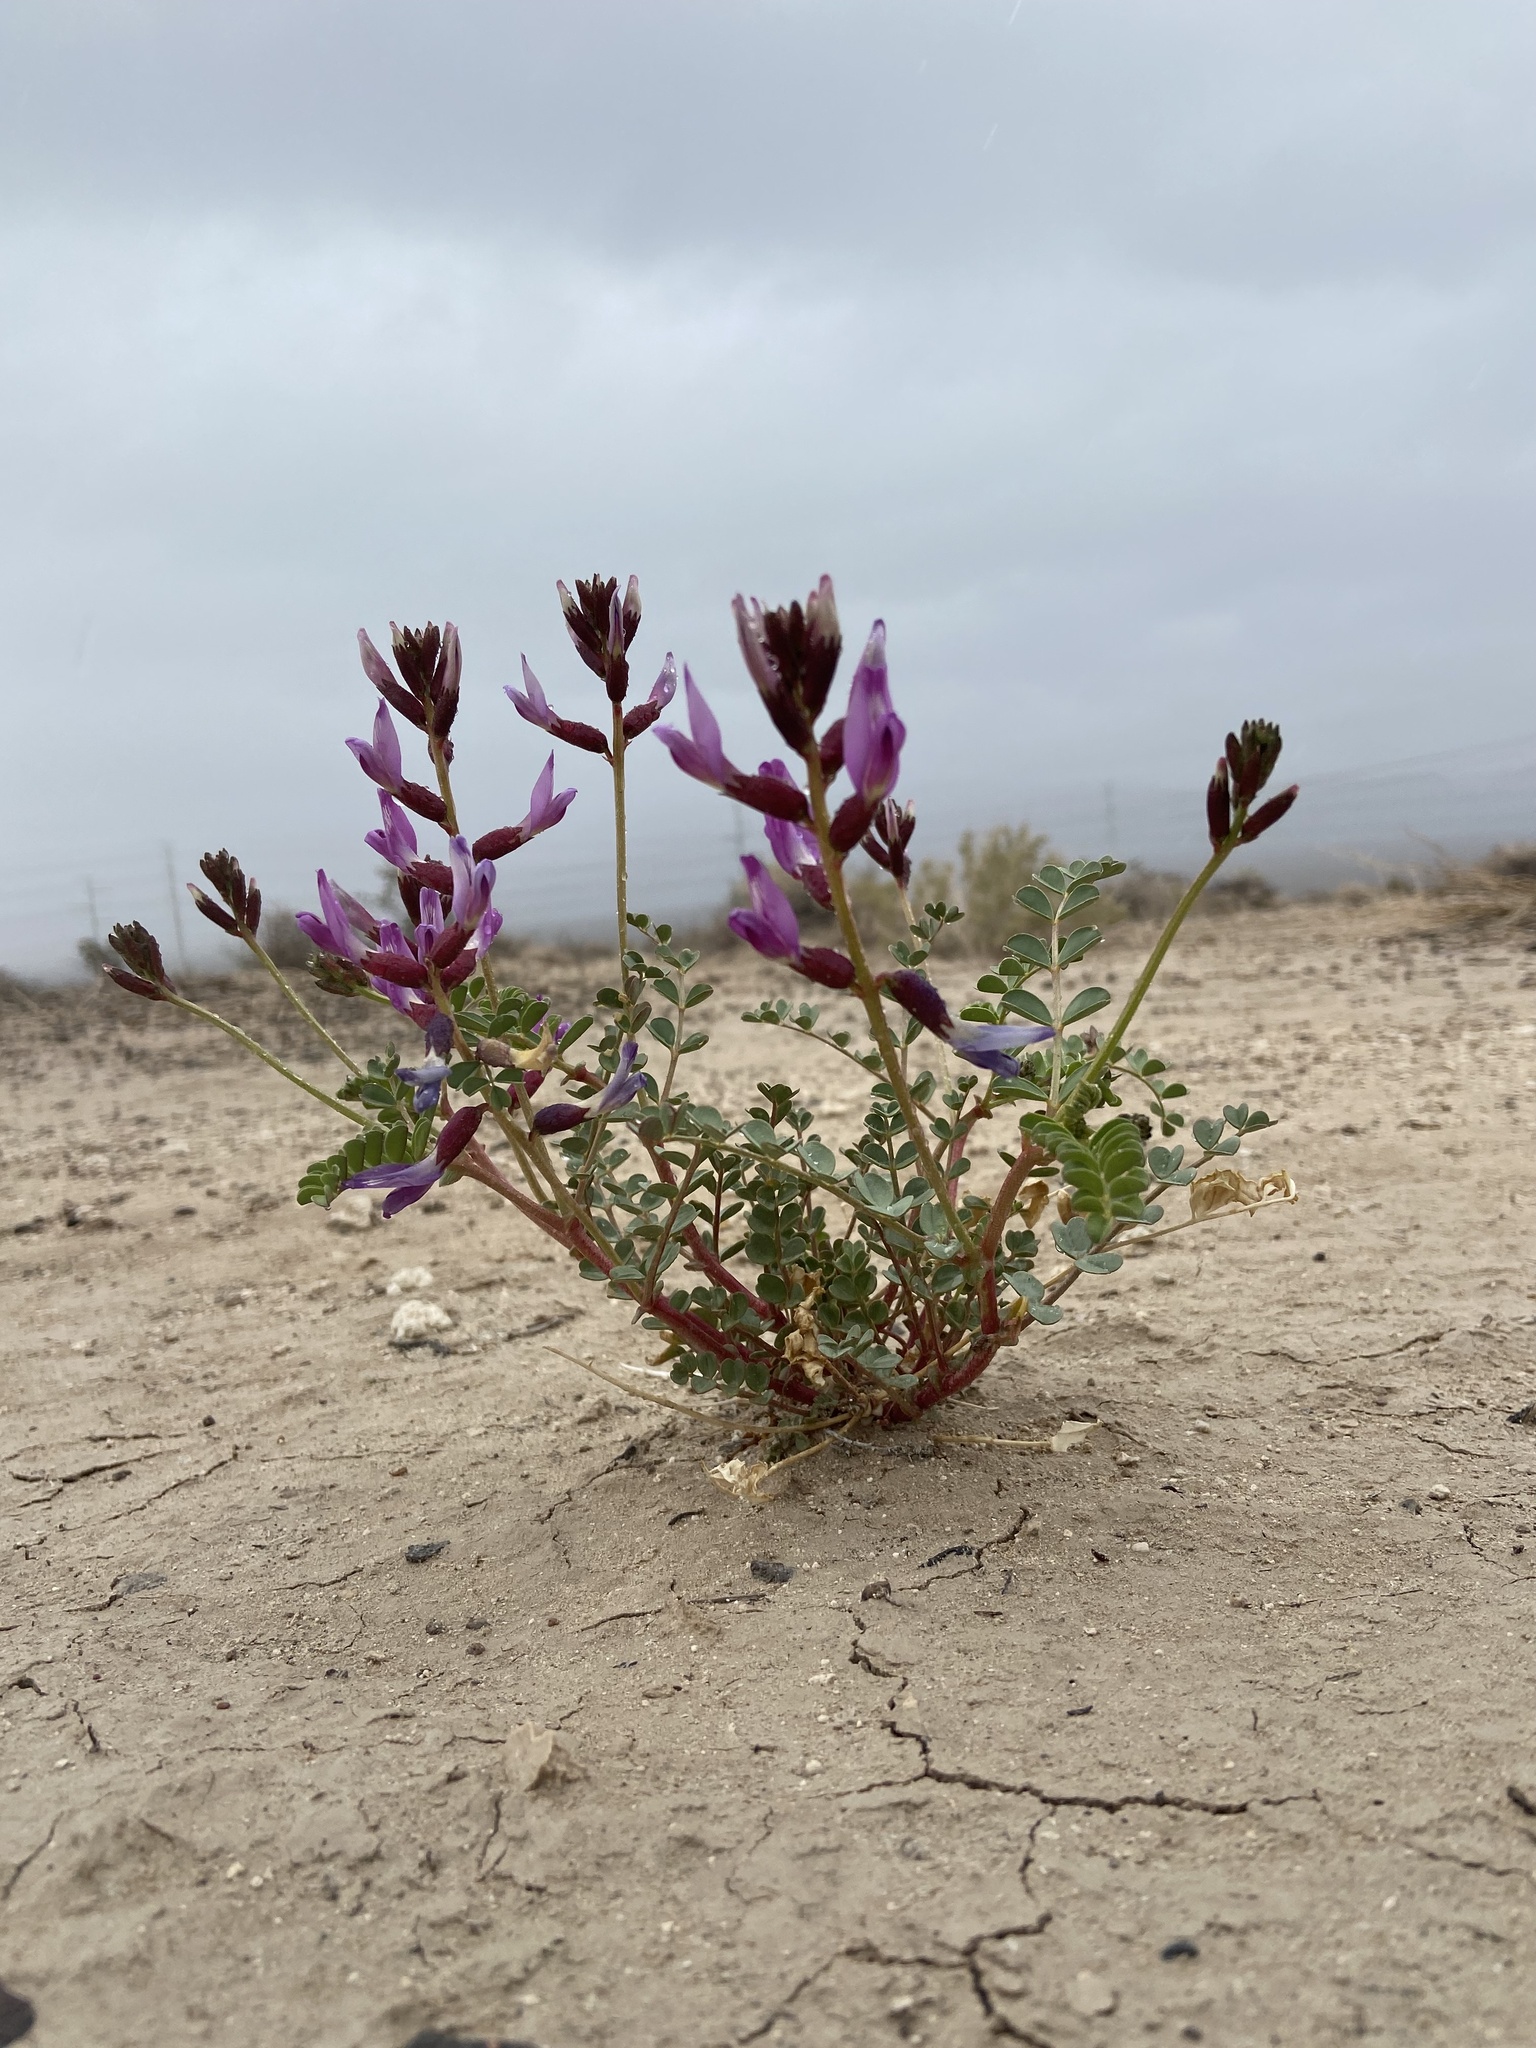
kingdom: Plantae
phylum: Tracheophyta
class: Magnoliopsida
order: Fabales
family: Fabaceae
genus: Astragalus
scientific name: Astragalus preussii
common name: Preuss's milk-vetch
